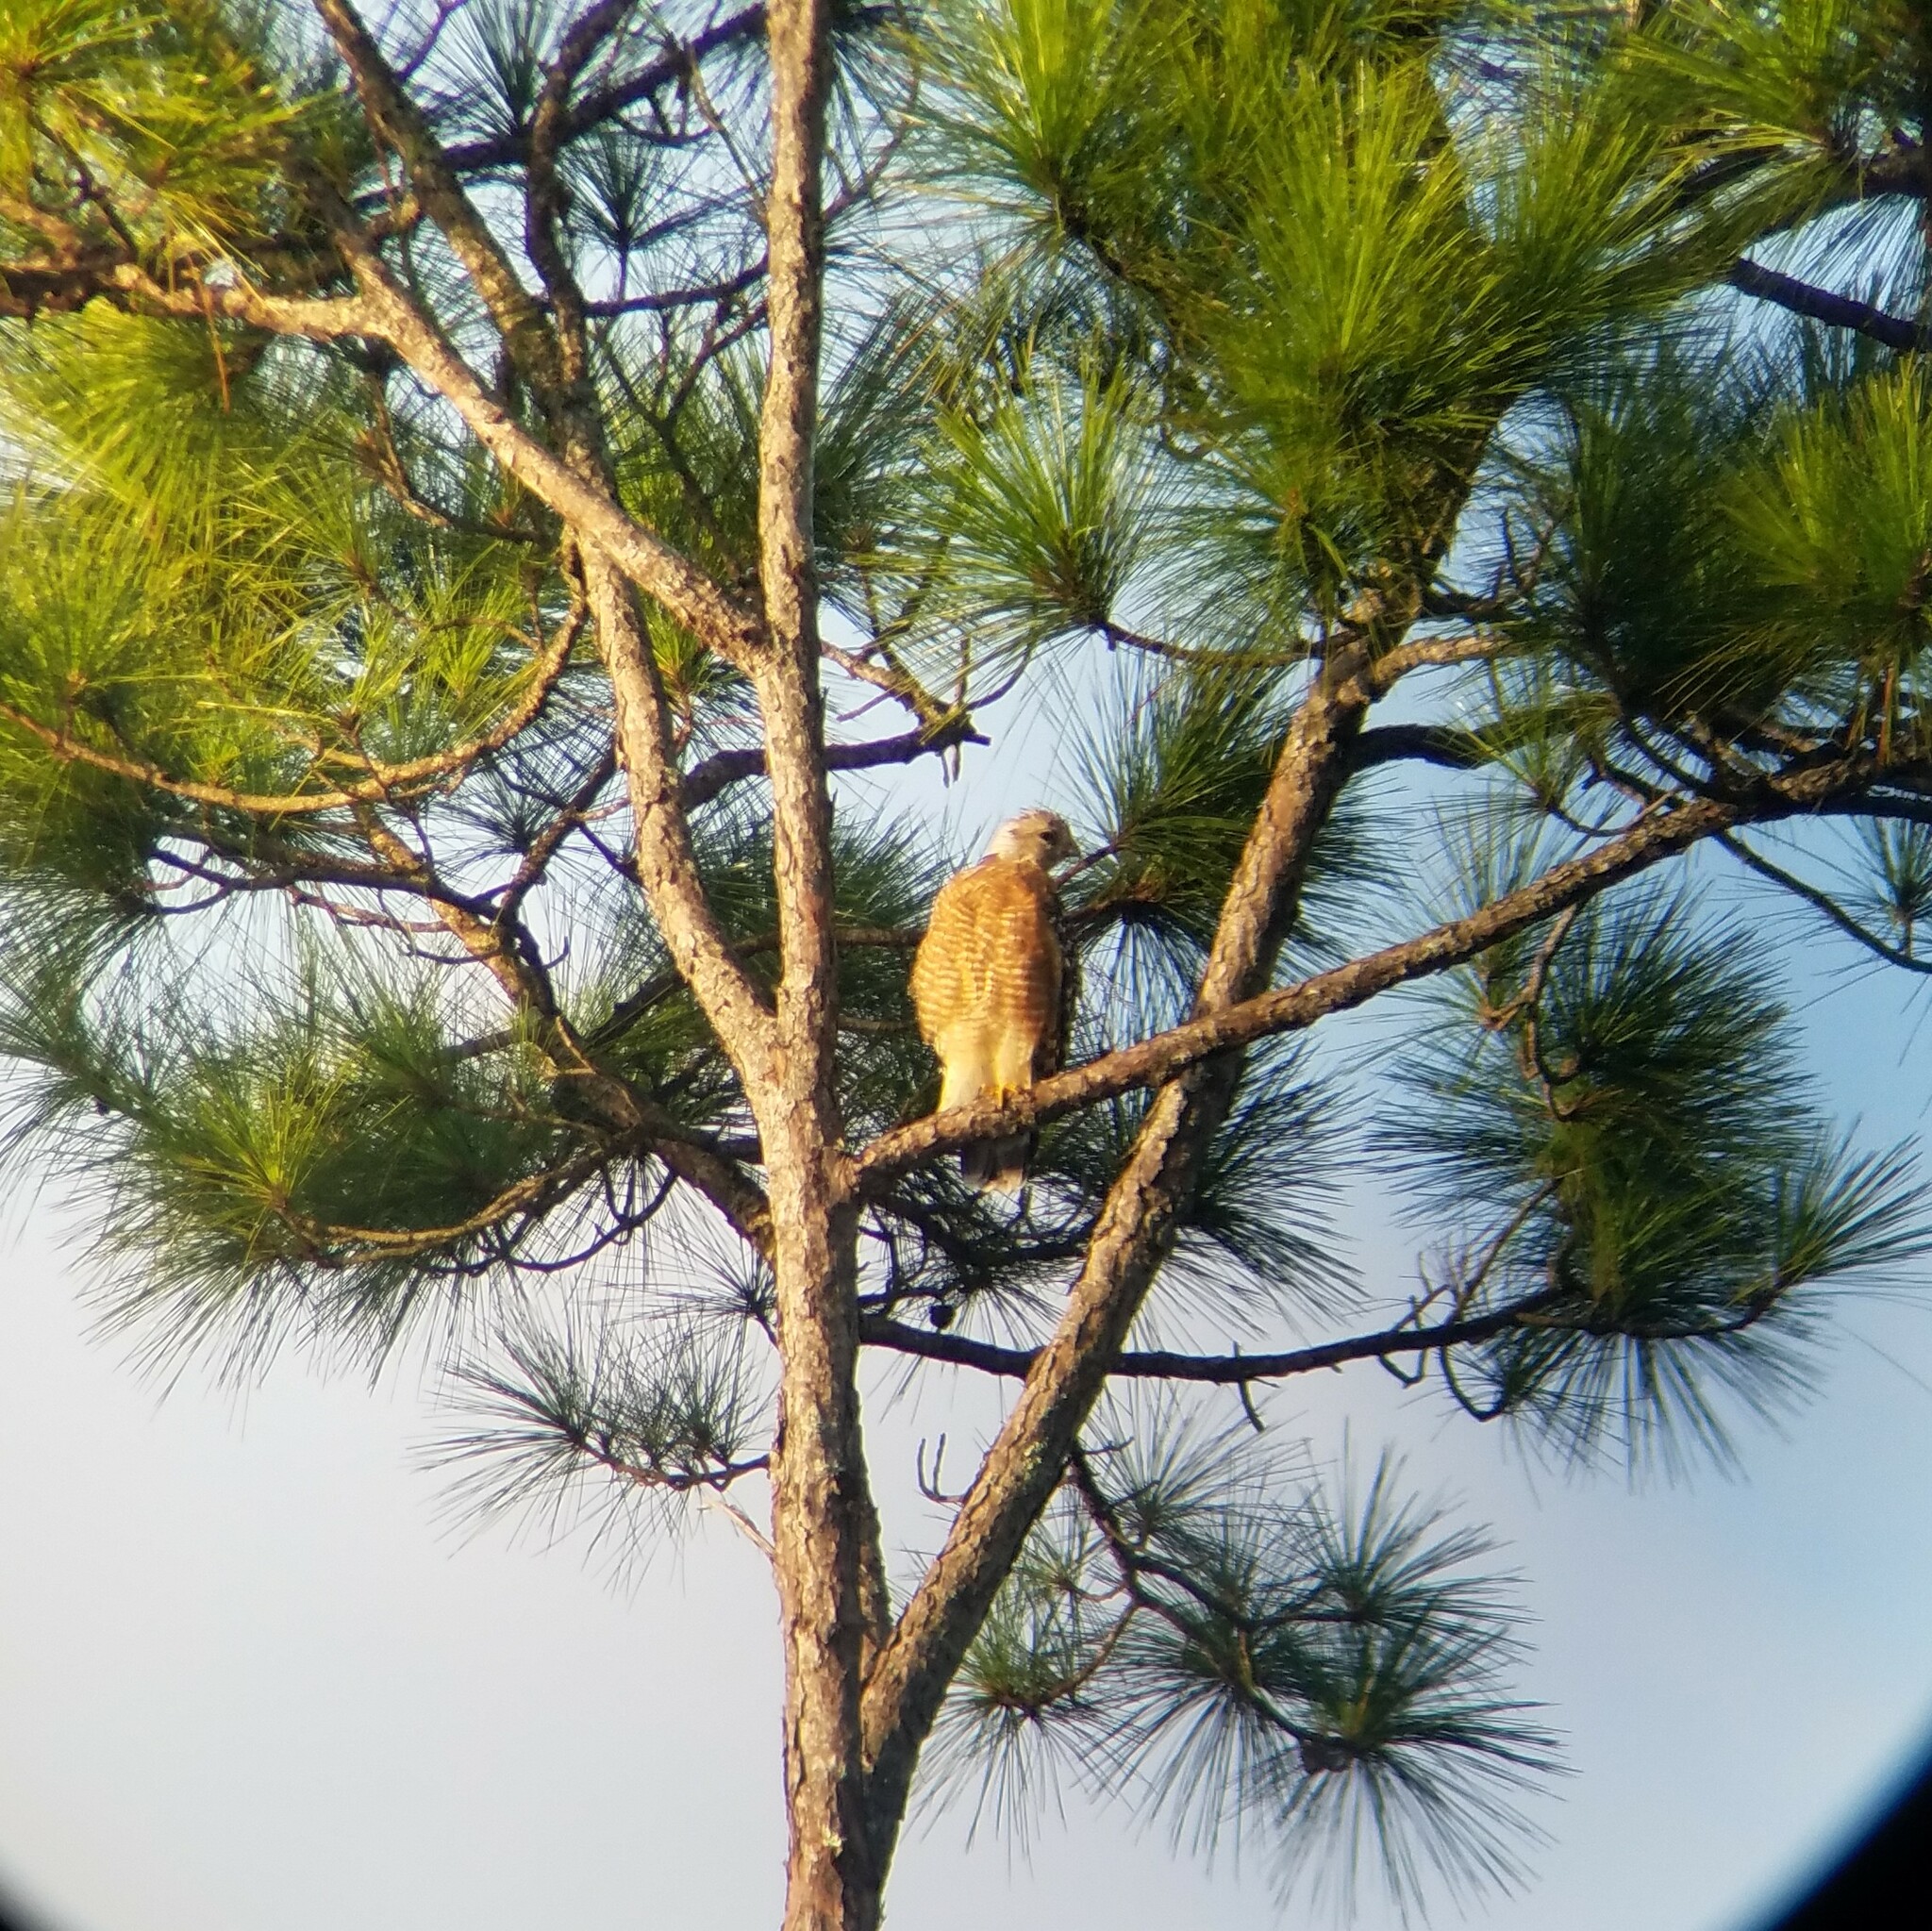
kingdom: Animalia
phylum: Chordata
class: Aves
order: Accipitriformes
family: Accipitridae
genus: Buteo
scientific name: Buteo lineatus
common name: Red-shouldered hawk
